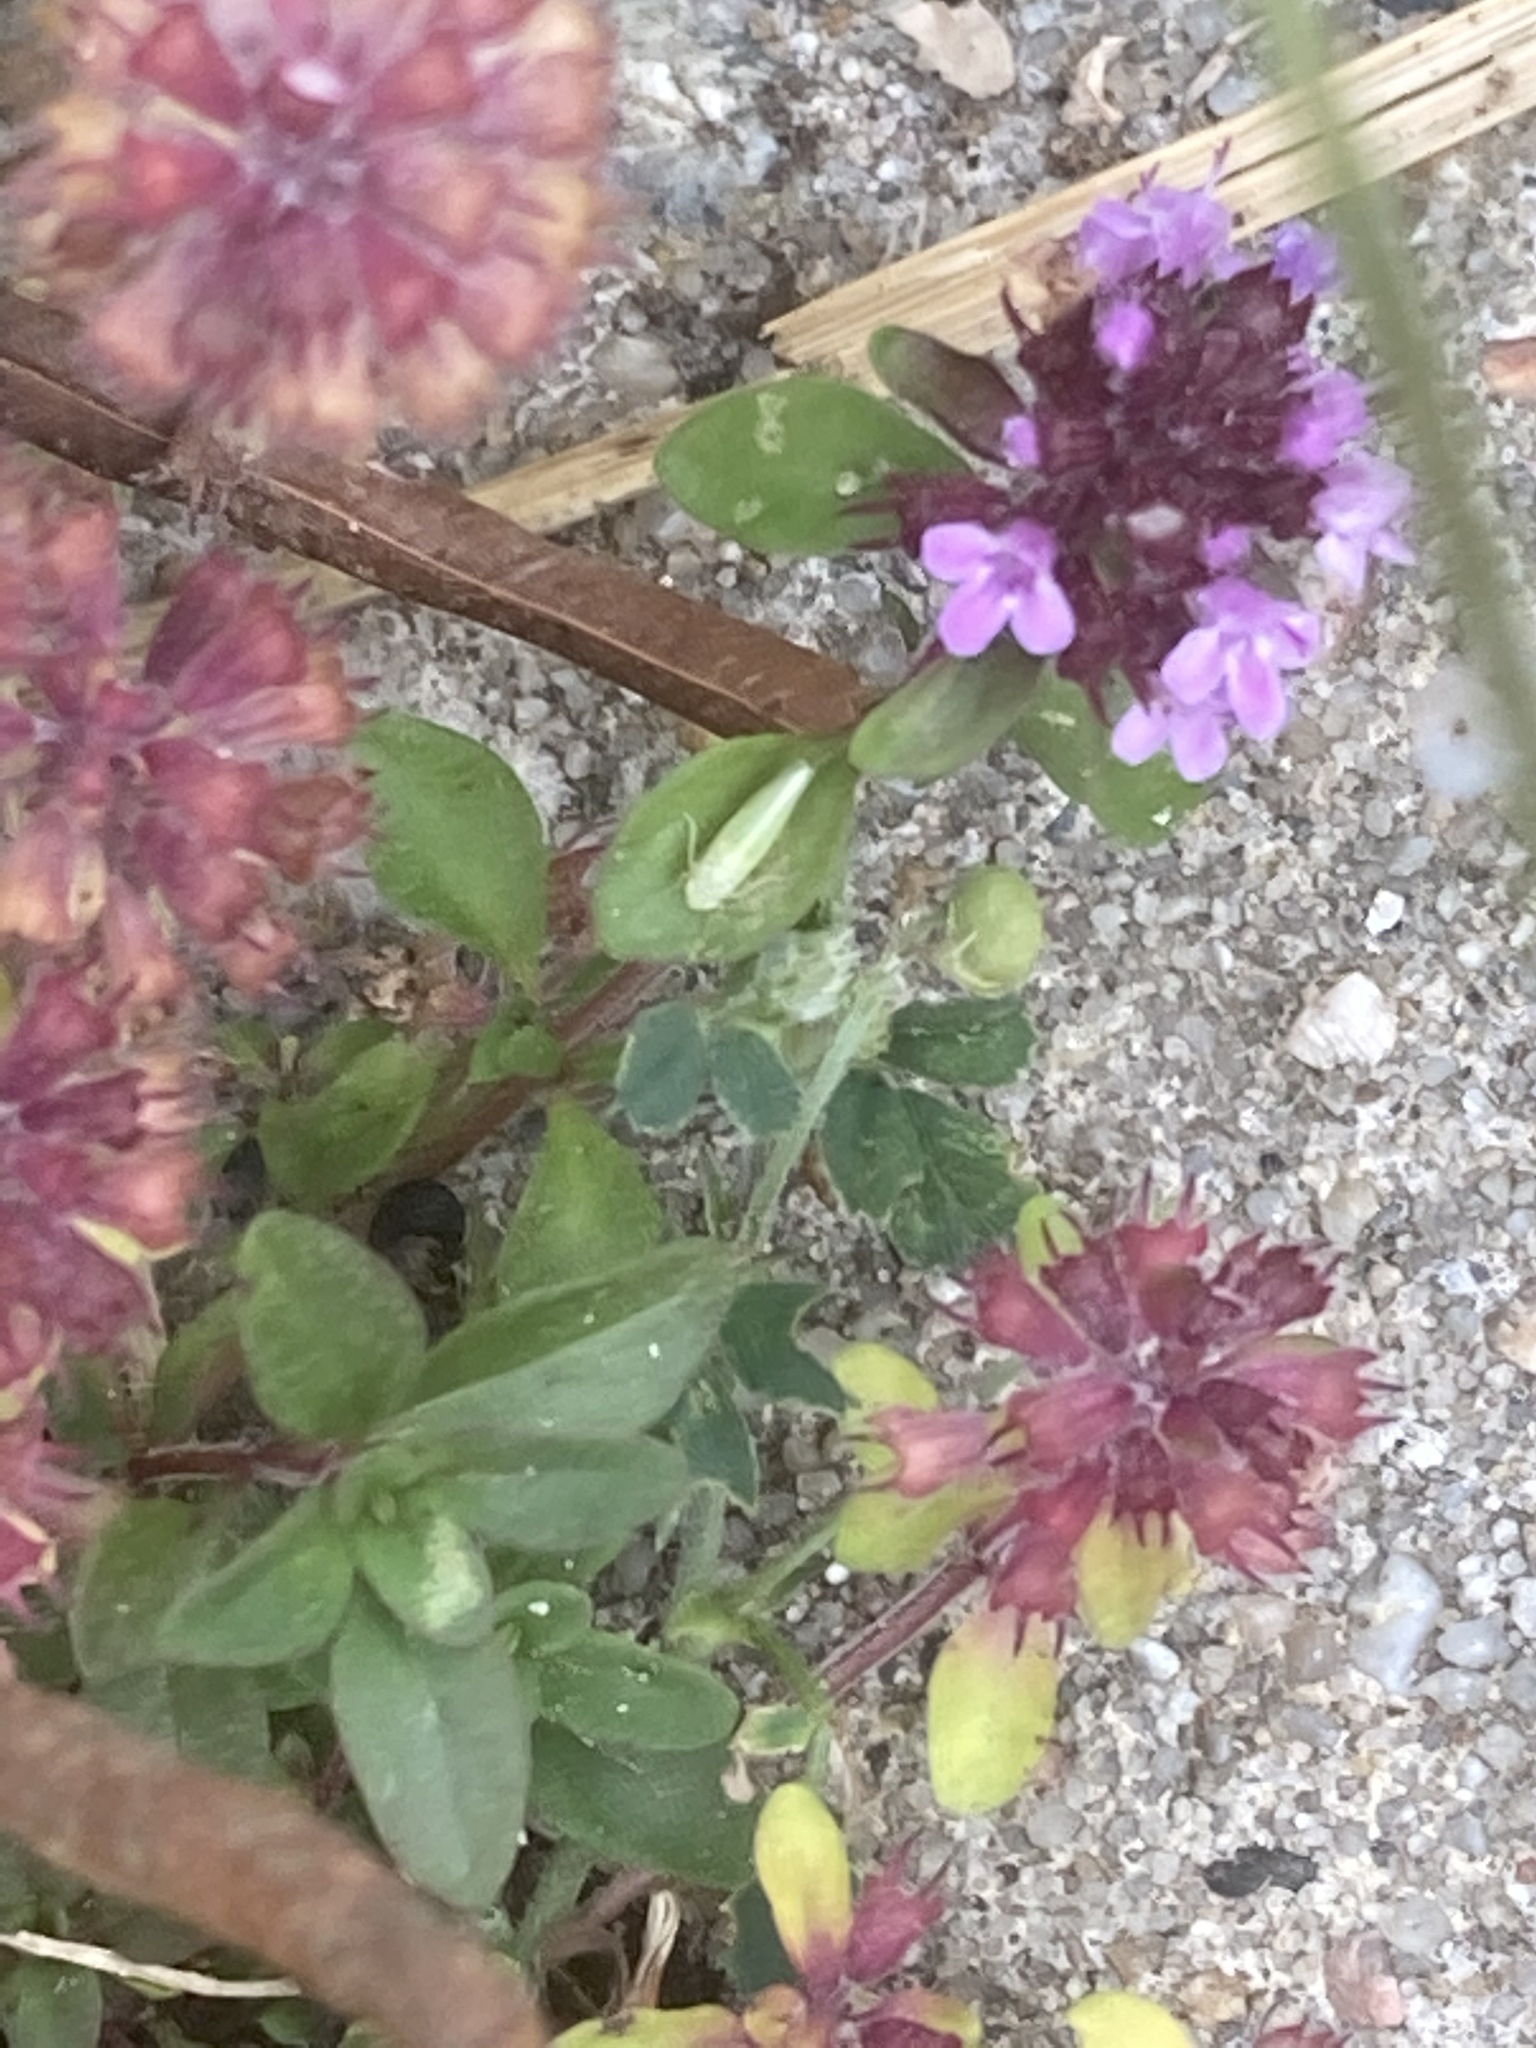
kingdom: Plantae
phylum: Tracheophyta
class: Magnoliopsida
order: Lamiales
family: Lamiaceae
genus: Thymus
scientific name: Thymus pulegioides
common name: Large thyme
